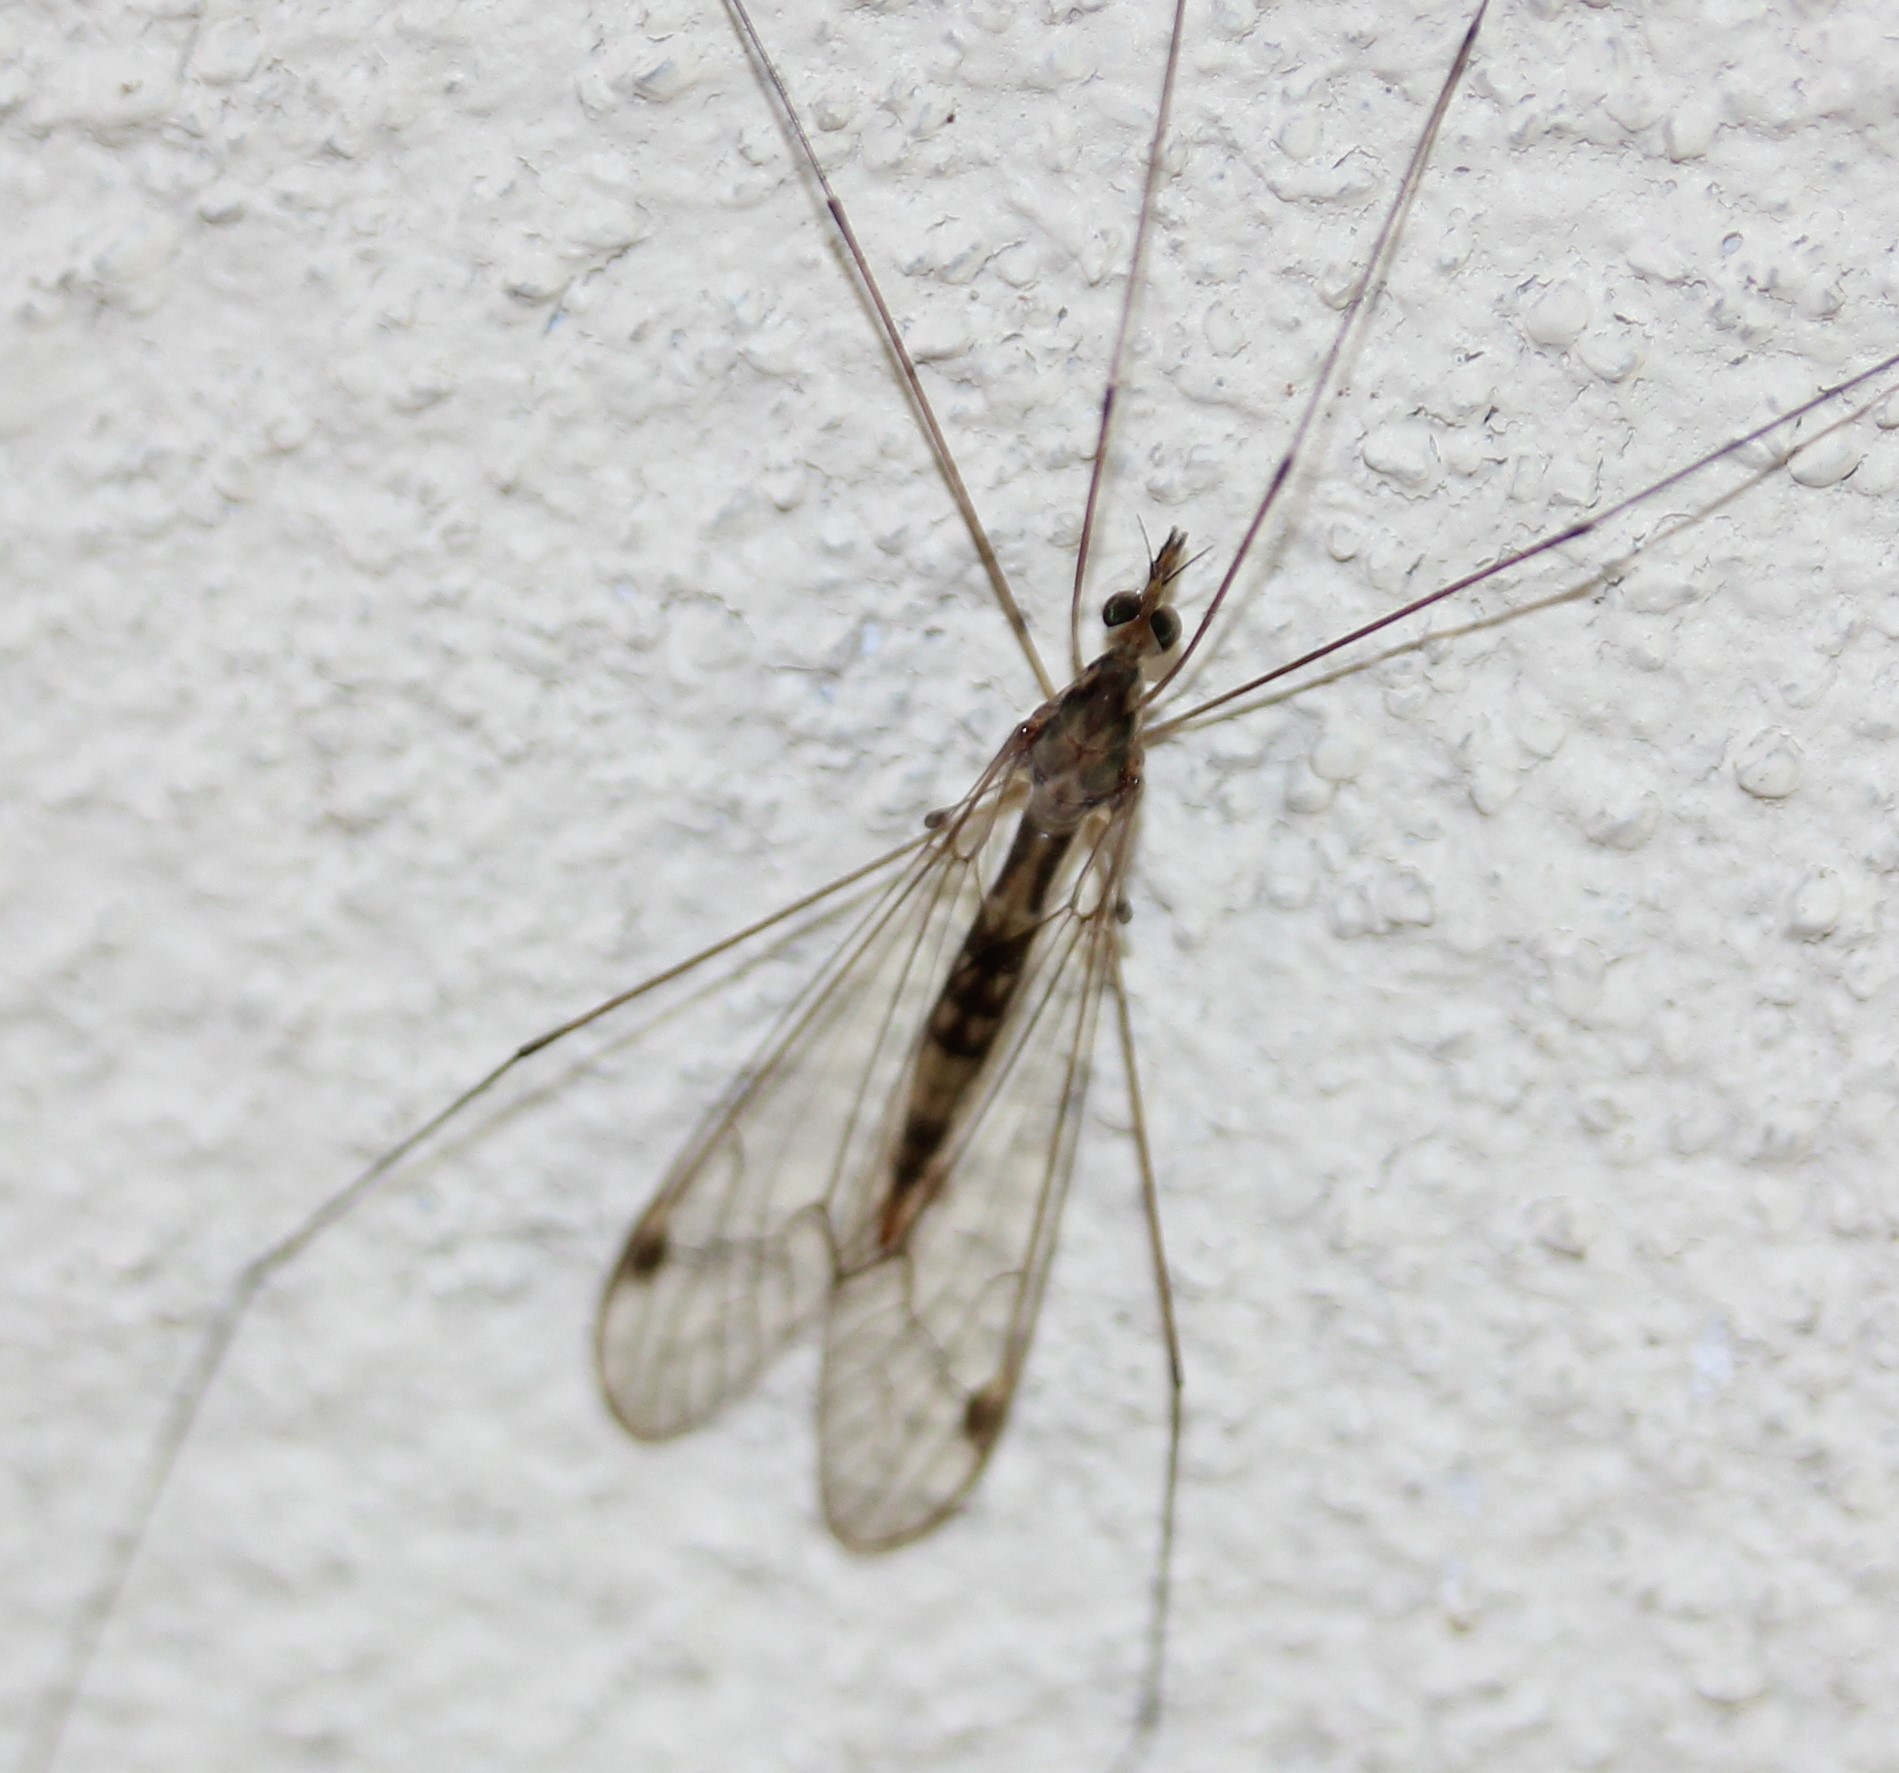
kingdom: Animalia
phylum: Arthropoda
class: Insecta
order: Diptera
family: Tipulidae
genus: Maekistocera
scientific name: Maekistocera longipennis
